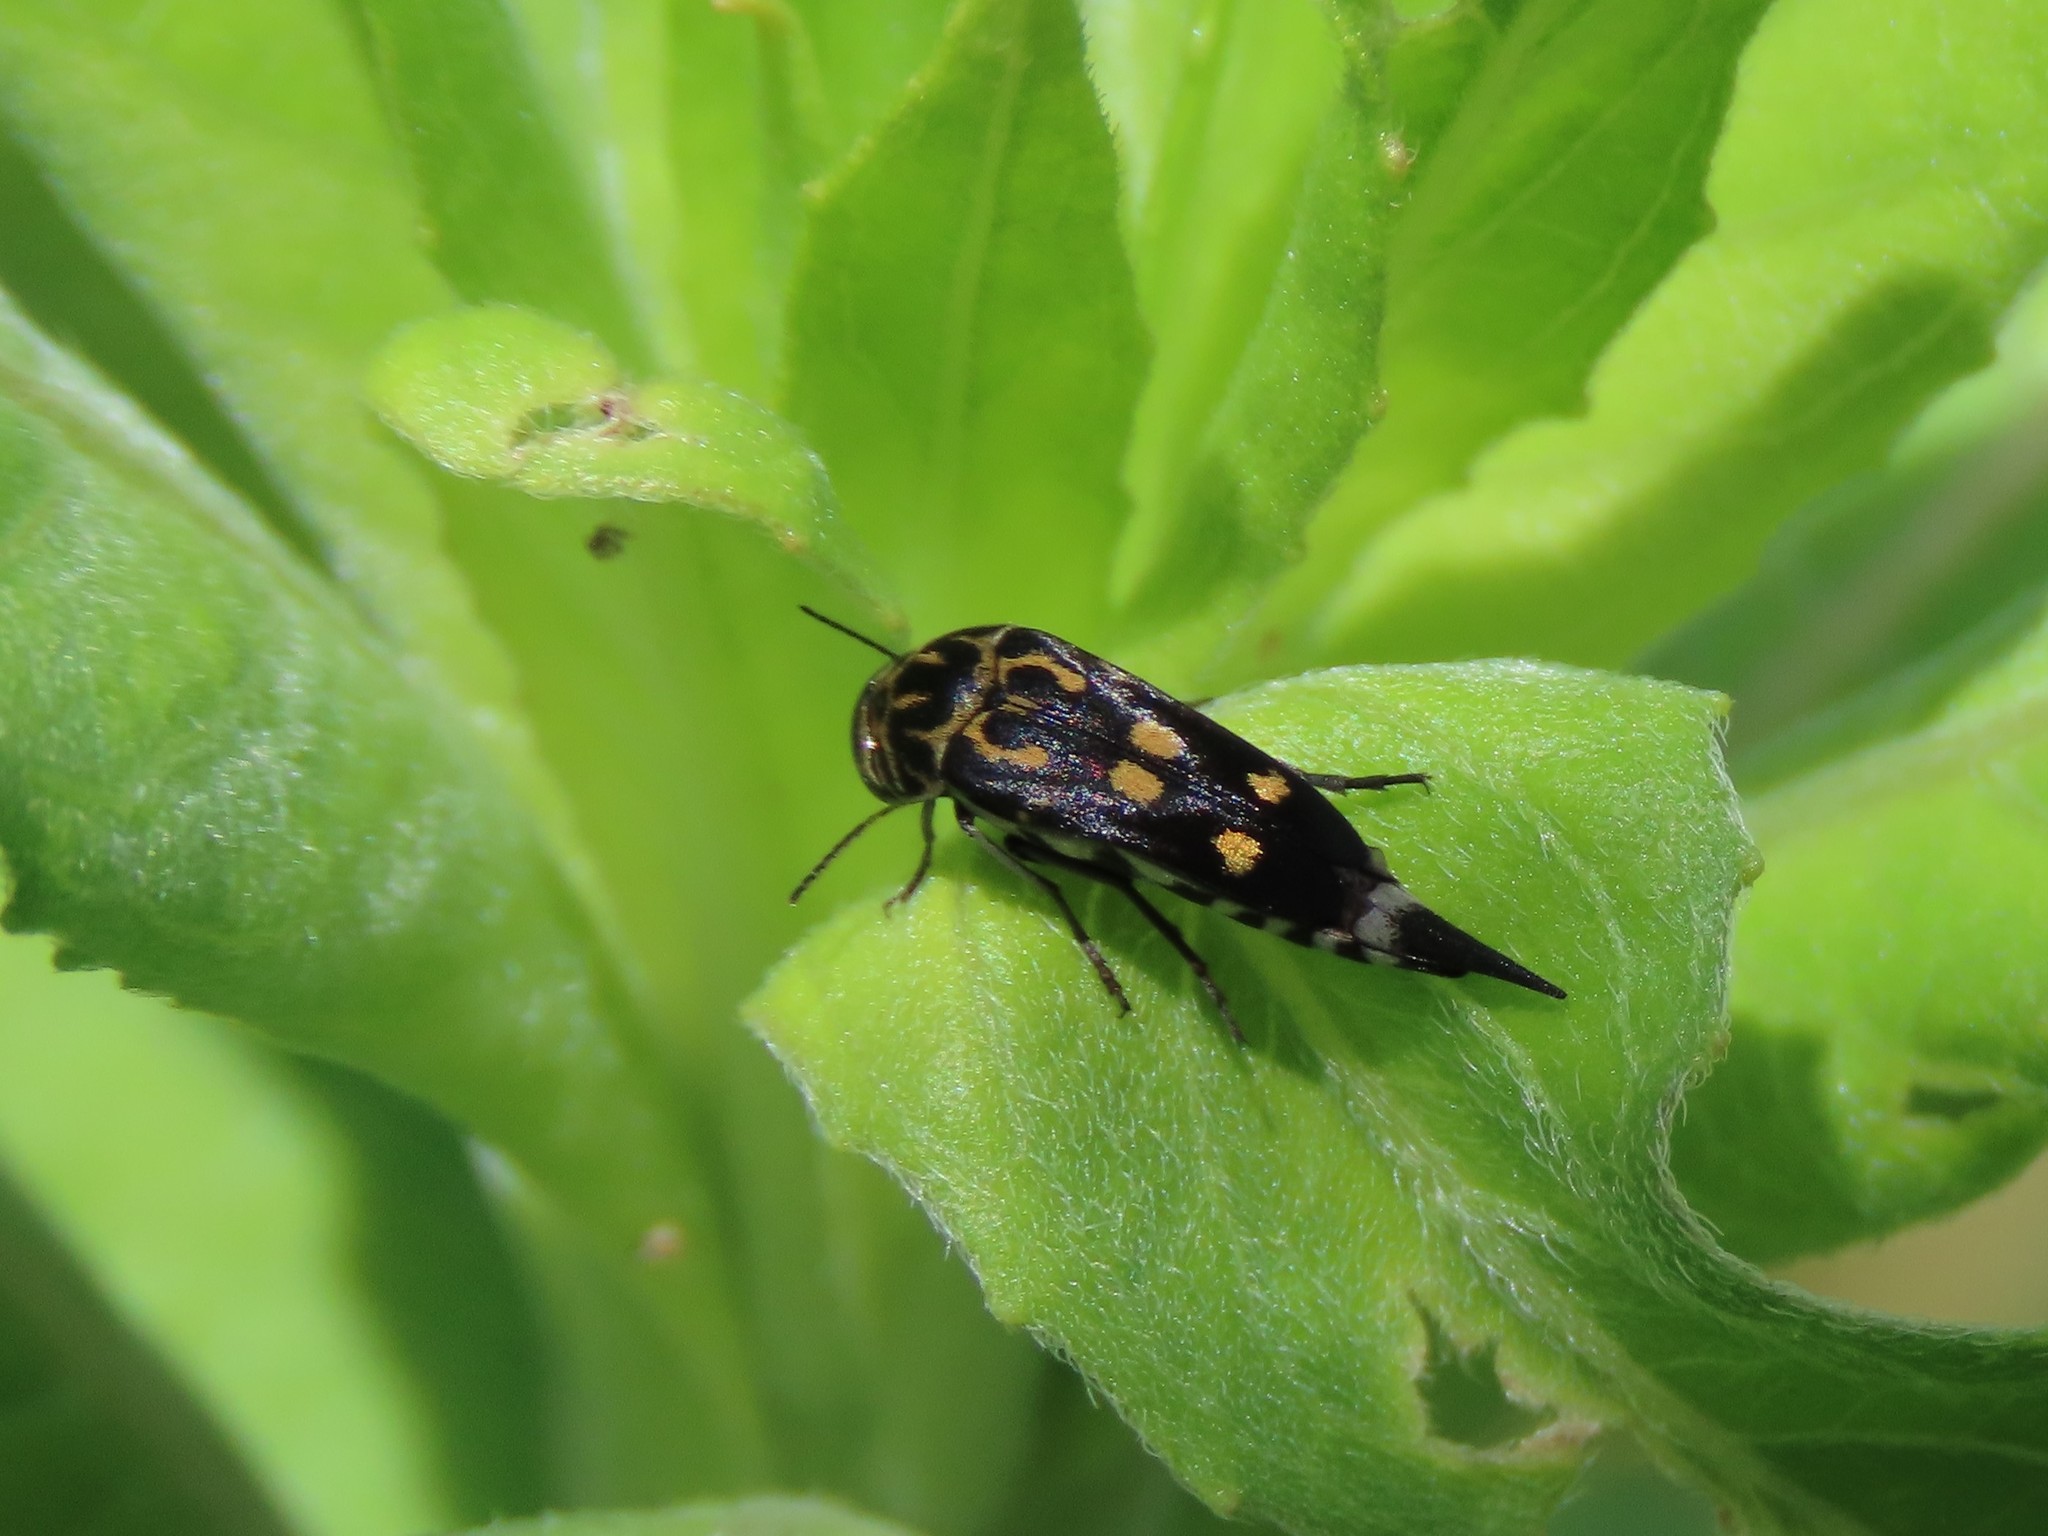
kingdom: Animalia
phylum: Arthropoda
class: Insecta
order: Coleoptera
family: Mordellidae
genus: Hoshihananomia
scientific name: Hoshihananomia octopunctata
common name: Eight-spotted tumbling flower beetle
